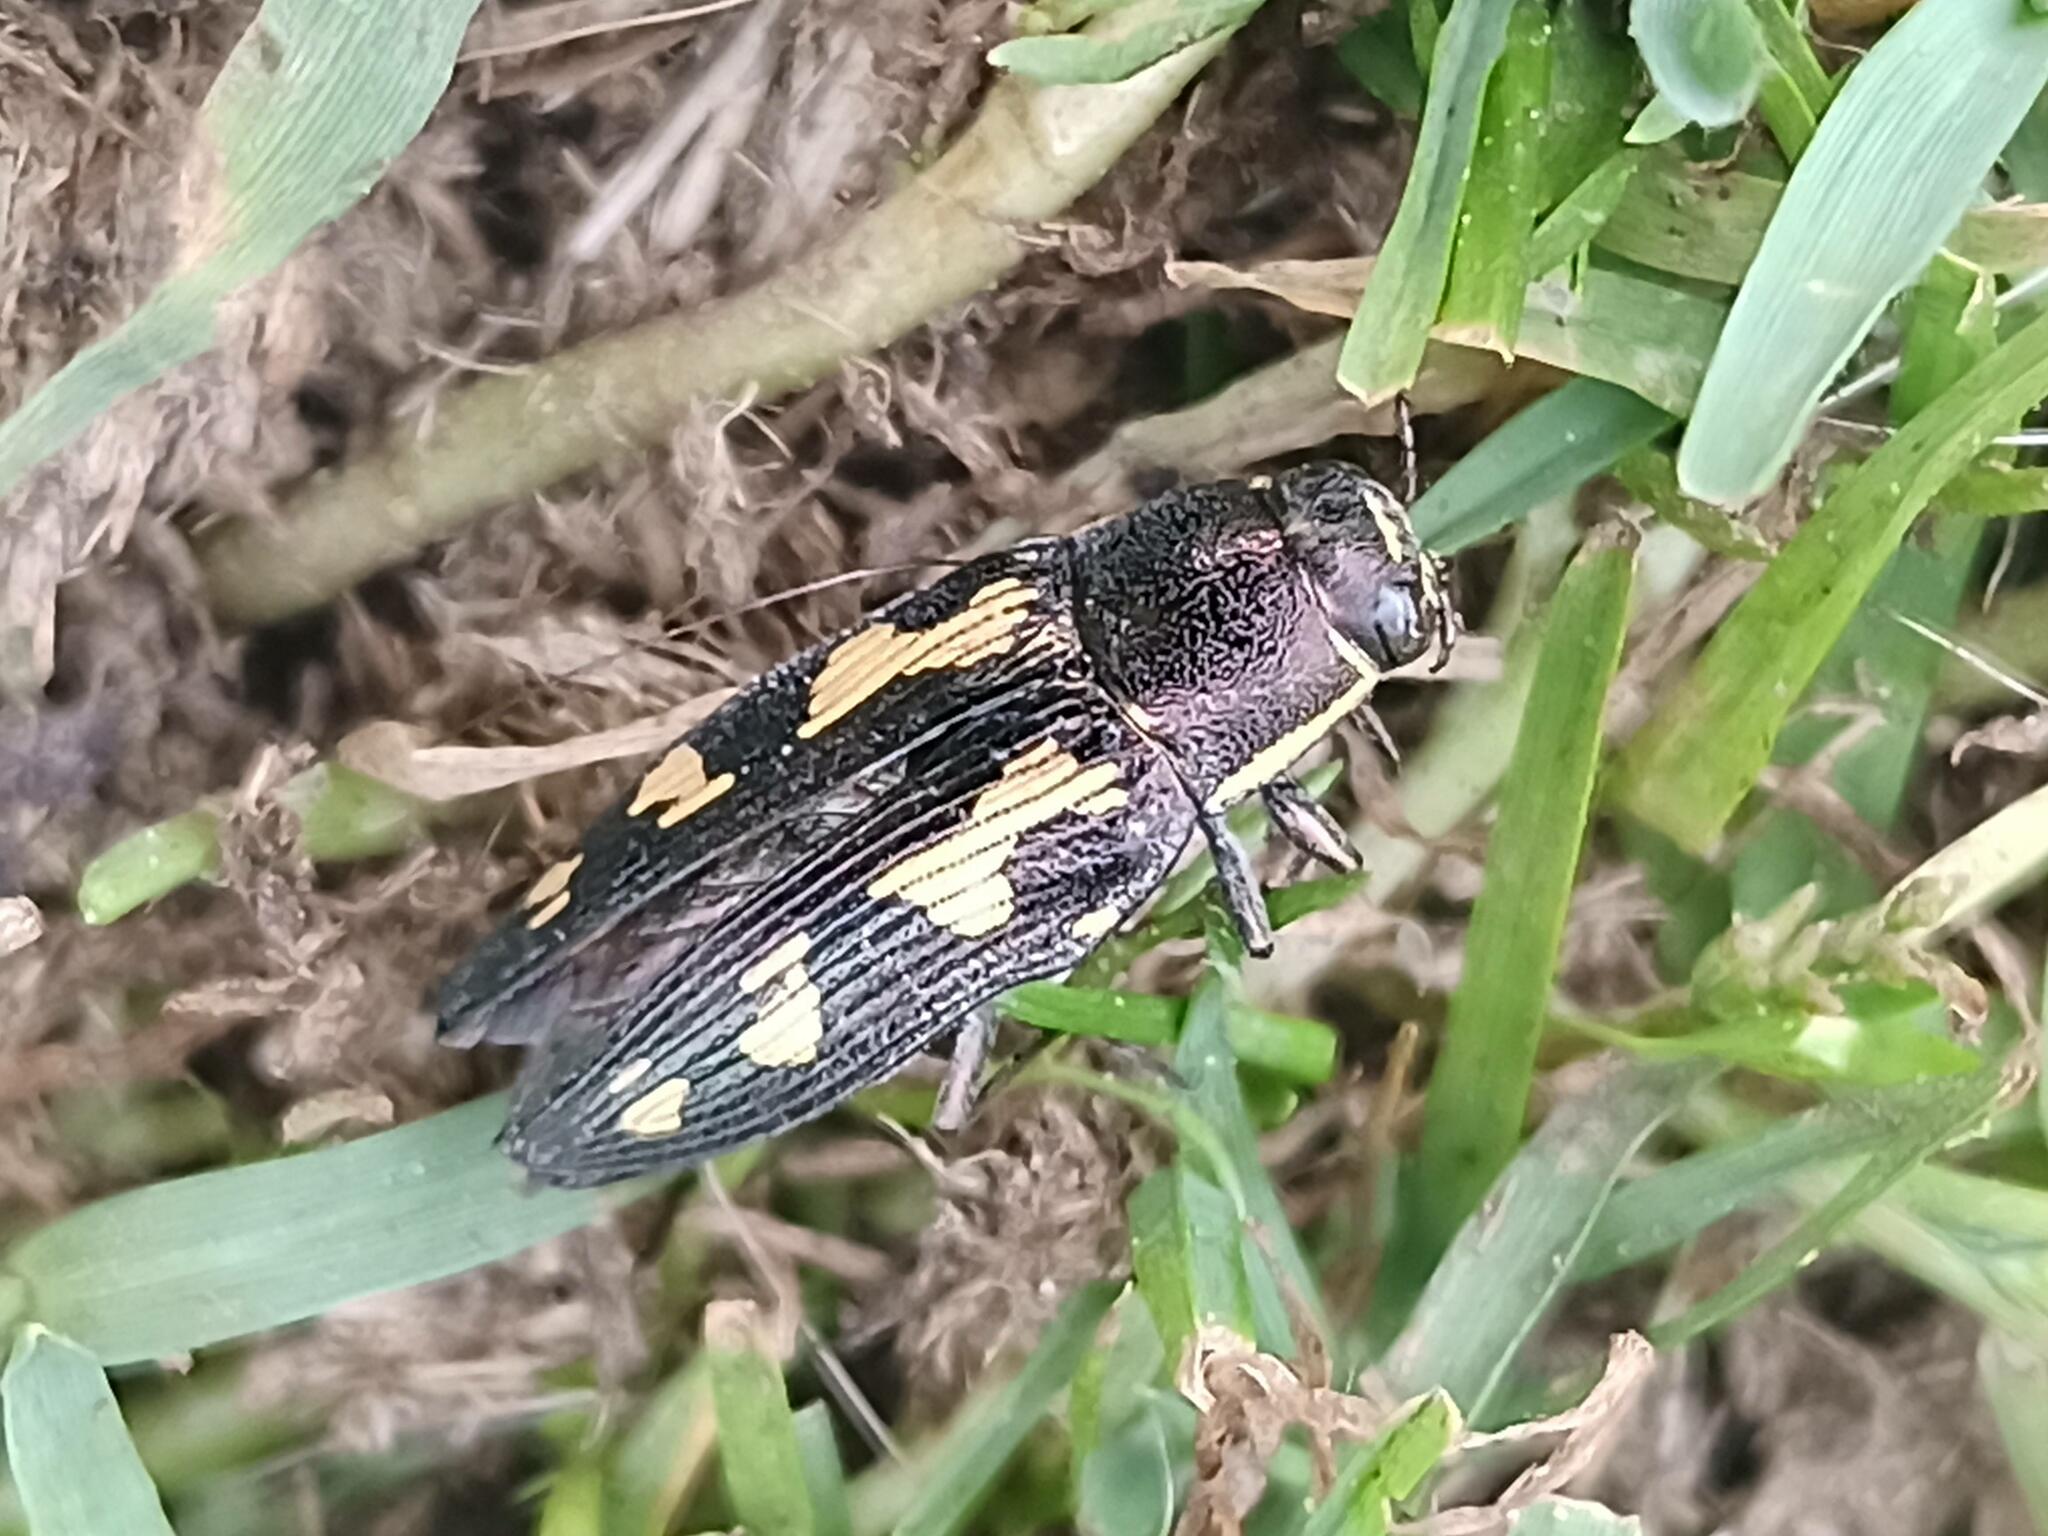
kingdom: Animalia
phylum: Arthropoda
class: Insecta
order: Coleoptera
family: Buprestidae
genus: Buprestis
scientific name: Buprestis novemmaculata
